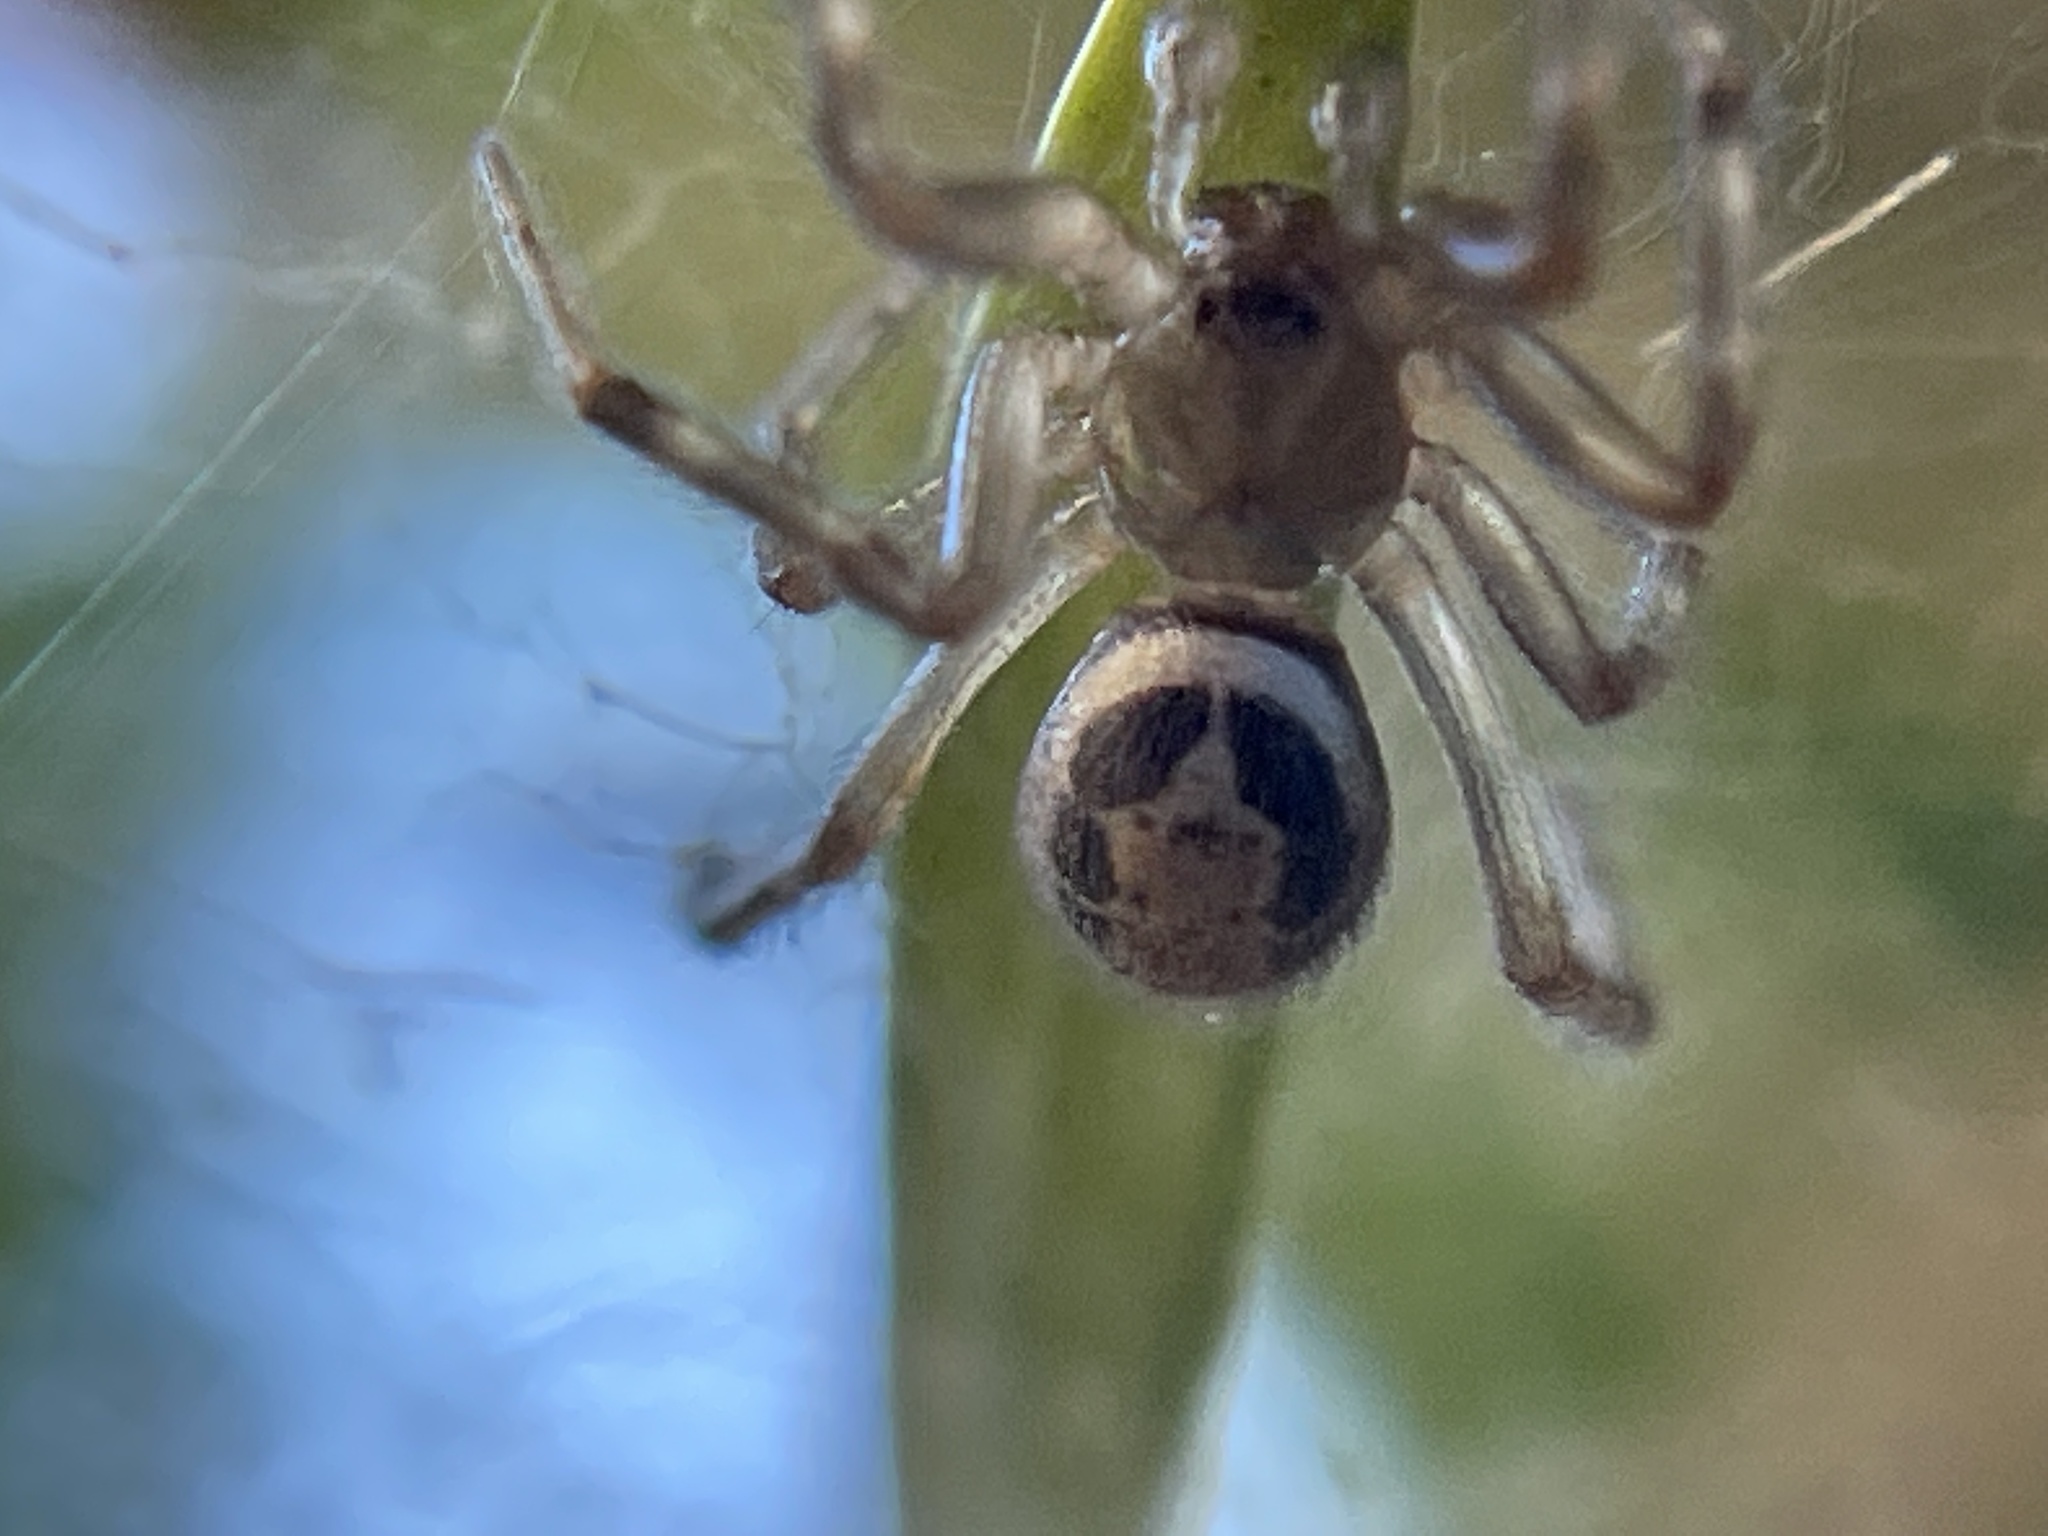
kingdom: Animalia
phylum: Arthropoda
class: Arachnida
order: Araneae
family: Theridiidae
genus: Steatoda
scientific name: Steatoda nobilis
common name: Cobweb weaver
